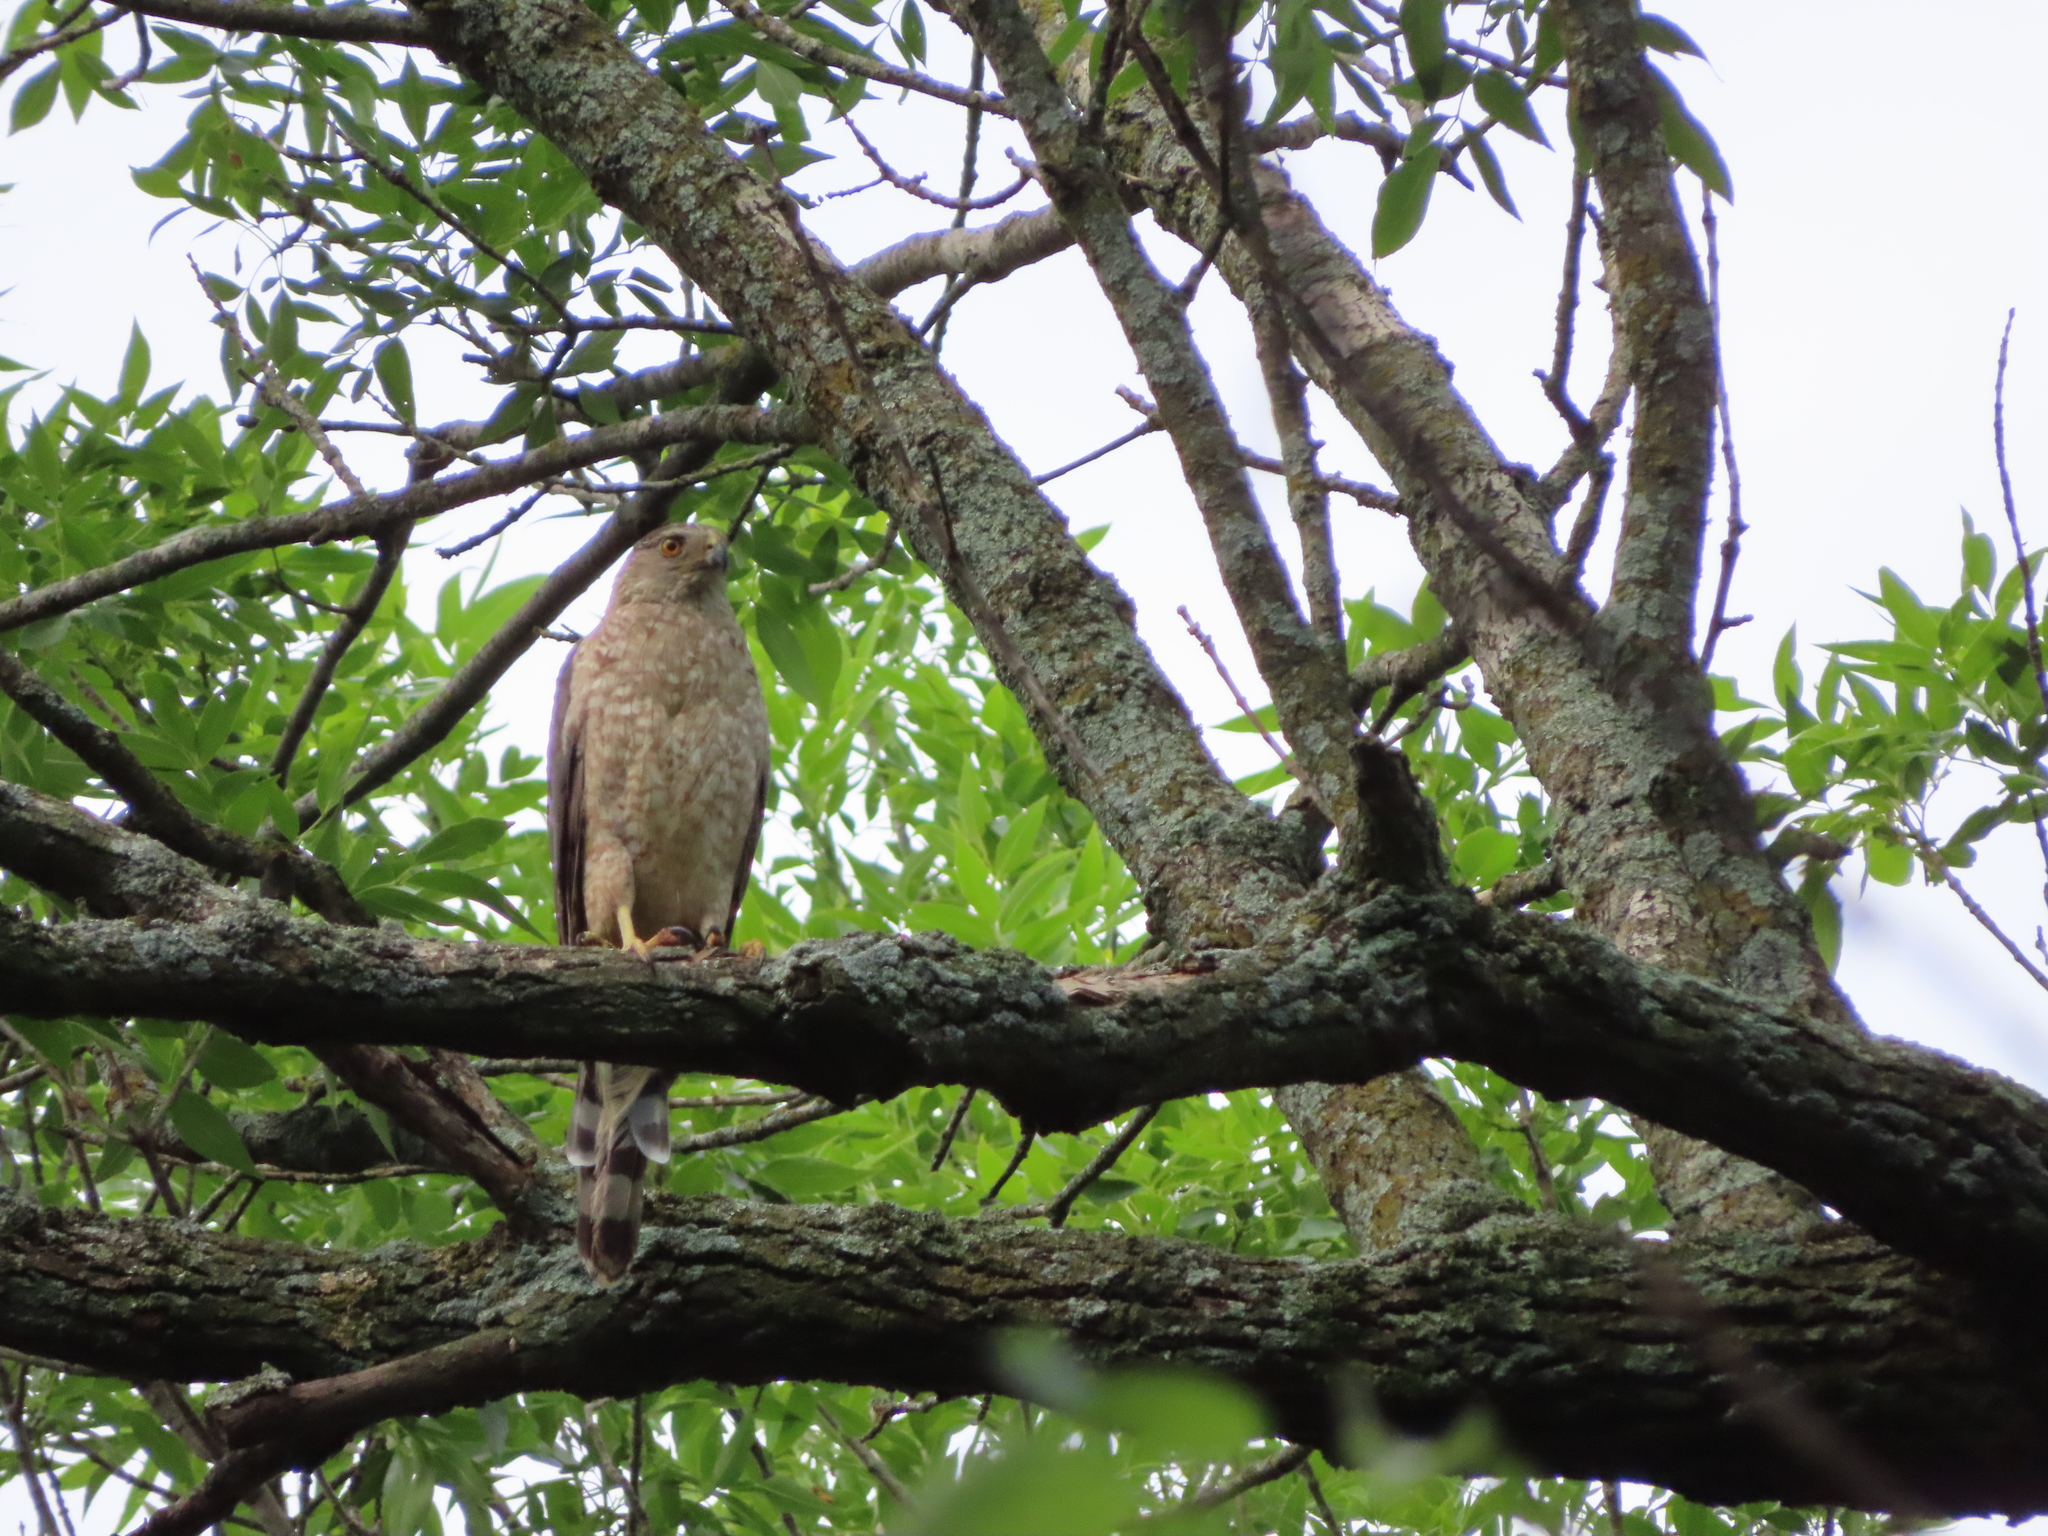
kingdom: Animalia
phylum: Chordata
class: Aves
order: Accipitriformes
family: Accipitridae
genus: Accipiter
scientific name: Accipiter cooperii
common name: Cooper's hawk
